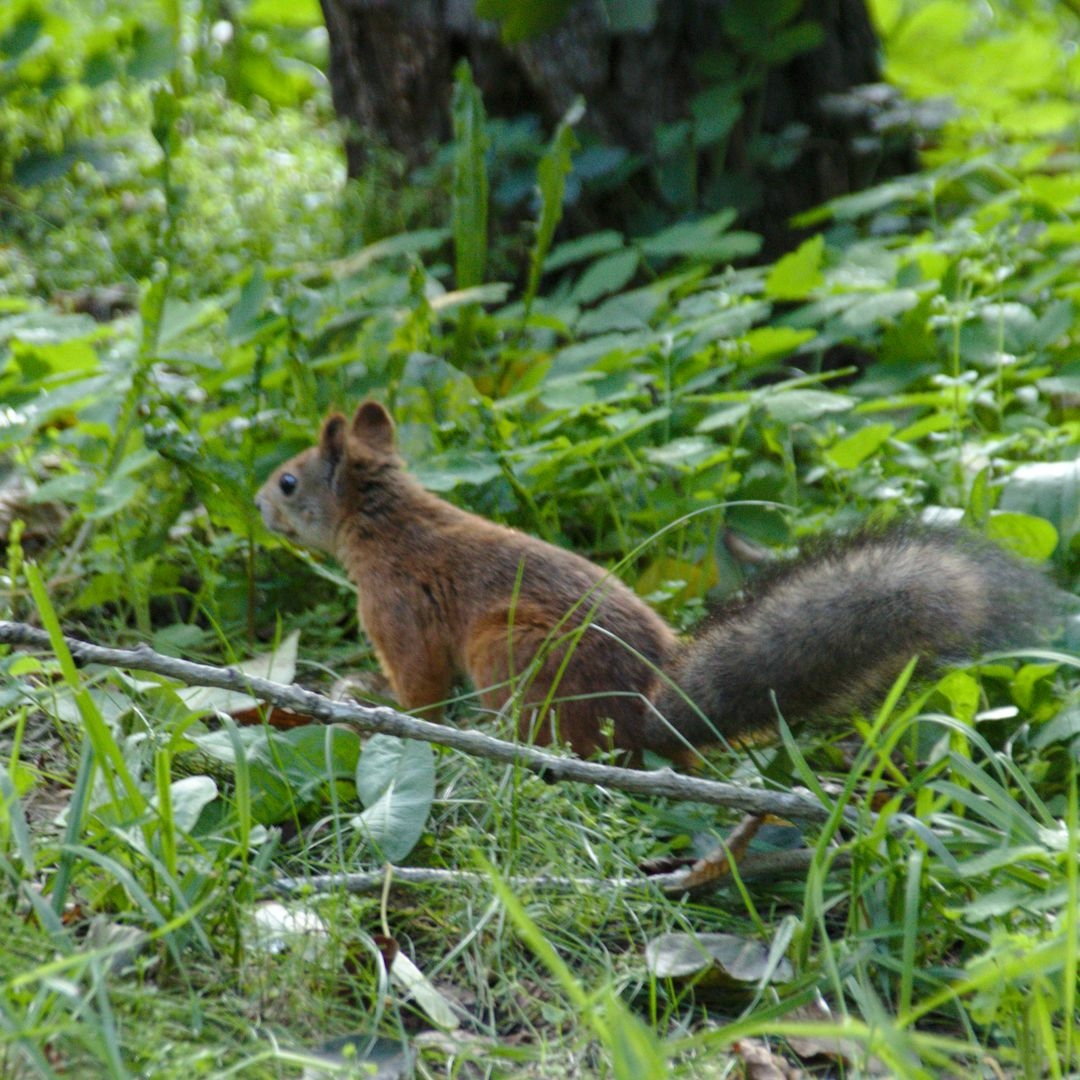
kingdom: Animalia
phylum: Chordata
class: Mammalia
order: Rodentia
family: Sciuridae
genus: Sciurus
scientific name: Sciurus vulgaris
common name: Eurasian red squirrel
